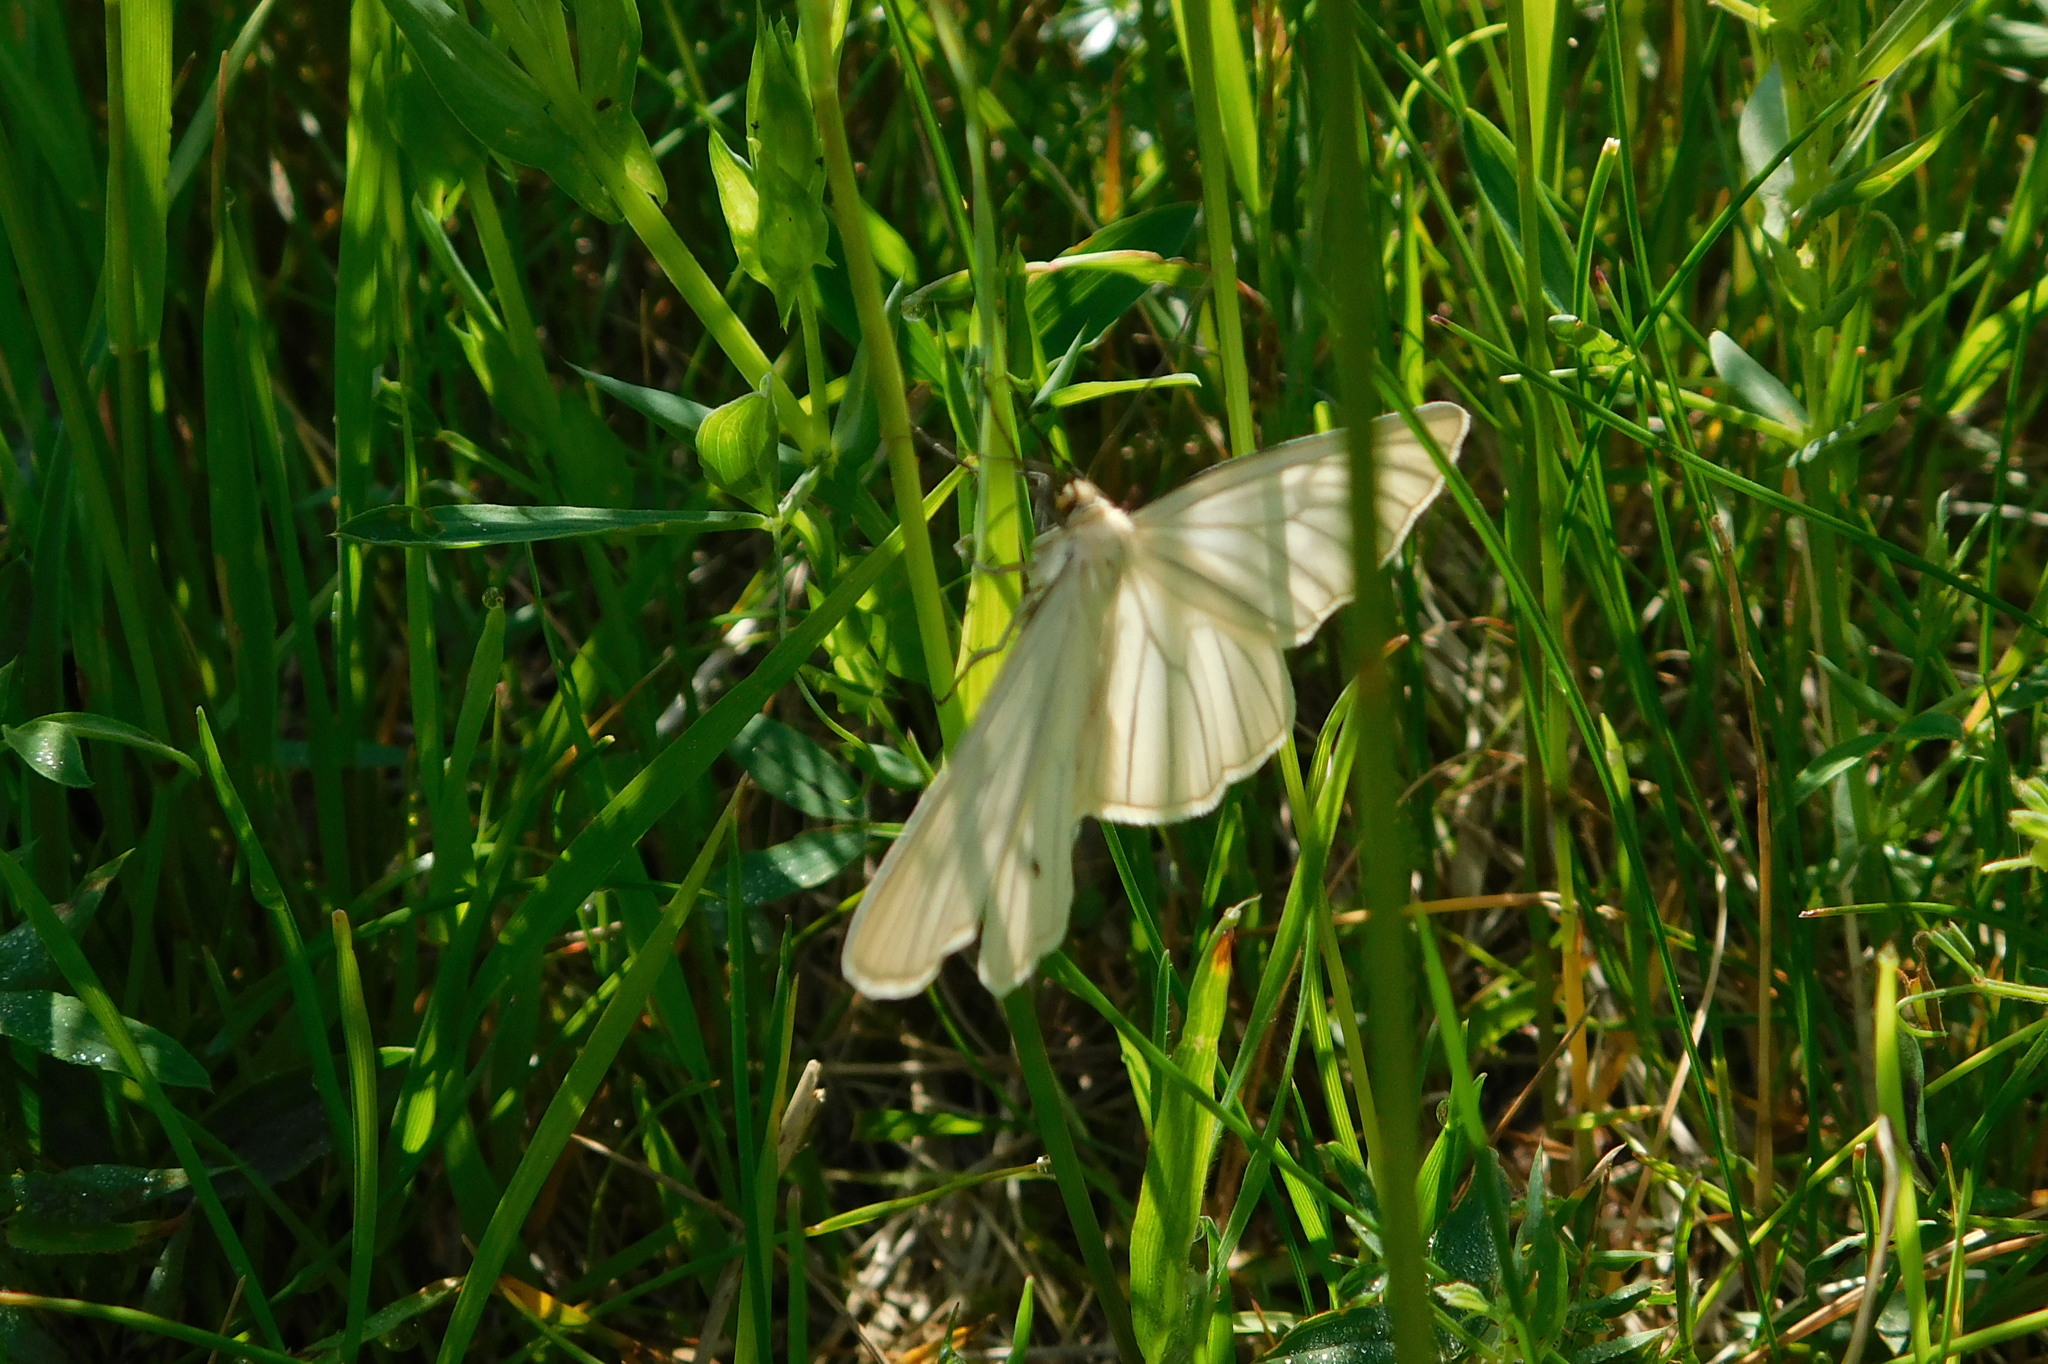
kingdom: Animalia
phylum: Arthropoda
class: Insecta
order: Lepidoptera
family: Geometridae
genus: Siona
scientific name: Siona lineata
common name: Black-veined moth
